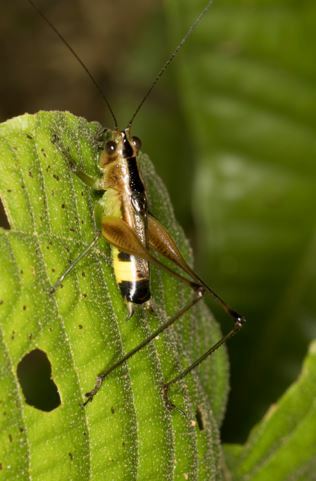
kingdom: Animalia
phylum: Arthropoda
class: Insecta
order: Orthoptera
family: Tettigoniidae
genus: Conocephalus
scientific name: Conocephalus versicolor
